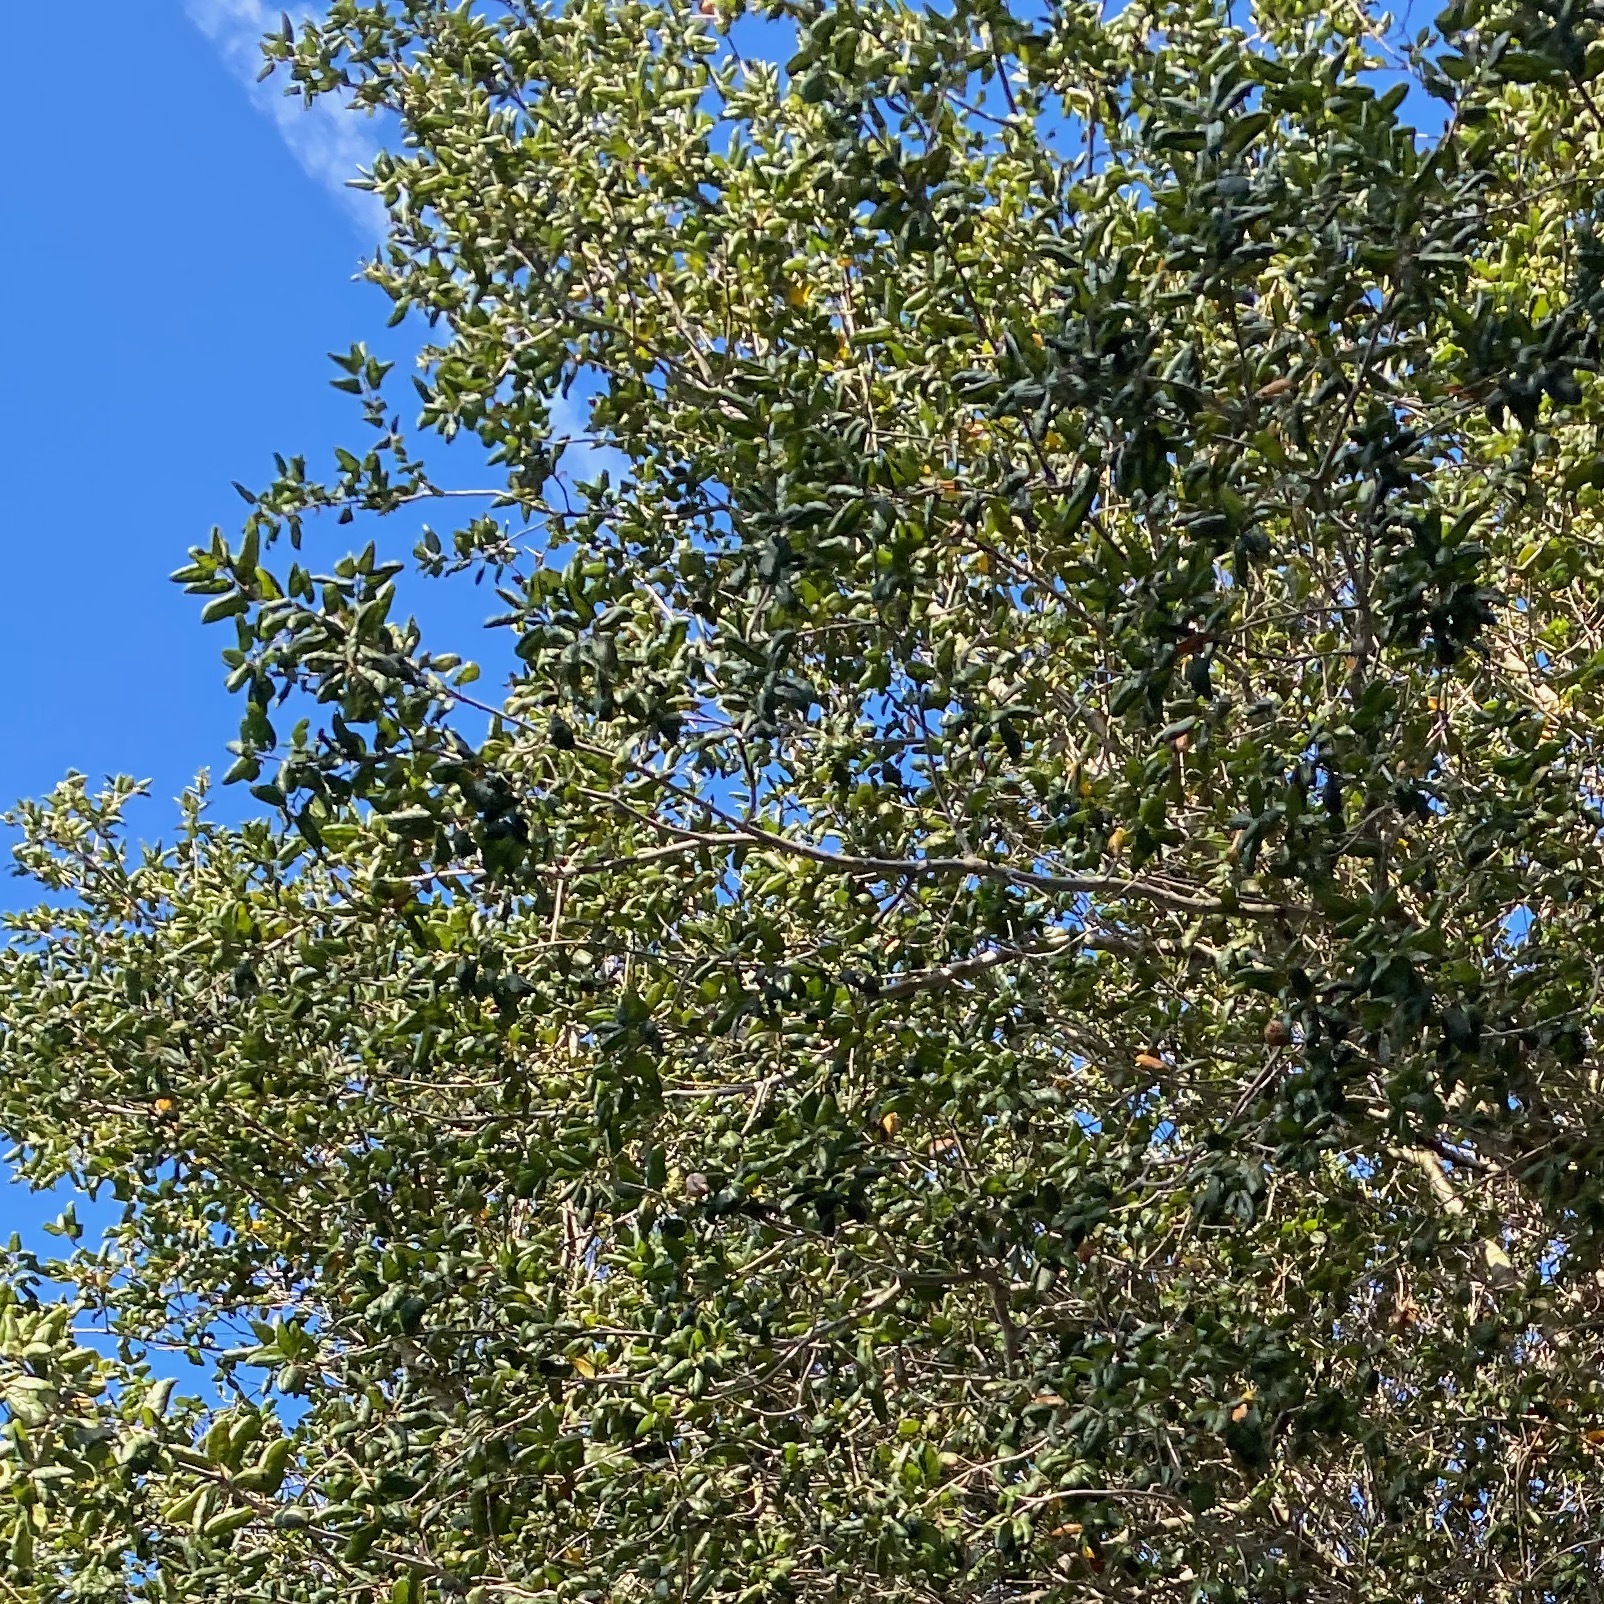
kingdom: Plantae
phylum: Tracheophyta
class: Magnoliopsida
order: Fagales
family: Fagaceae
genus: Quercus
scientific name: Quercus agrifolia
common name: California live oak
